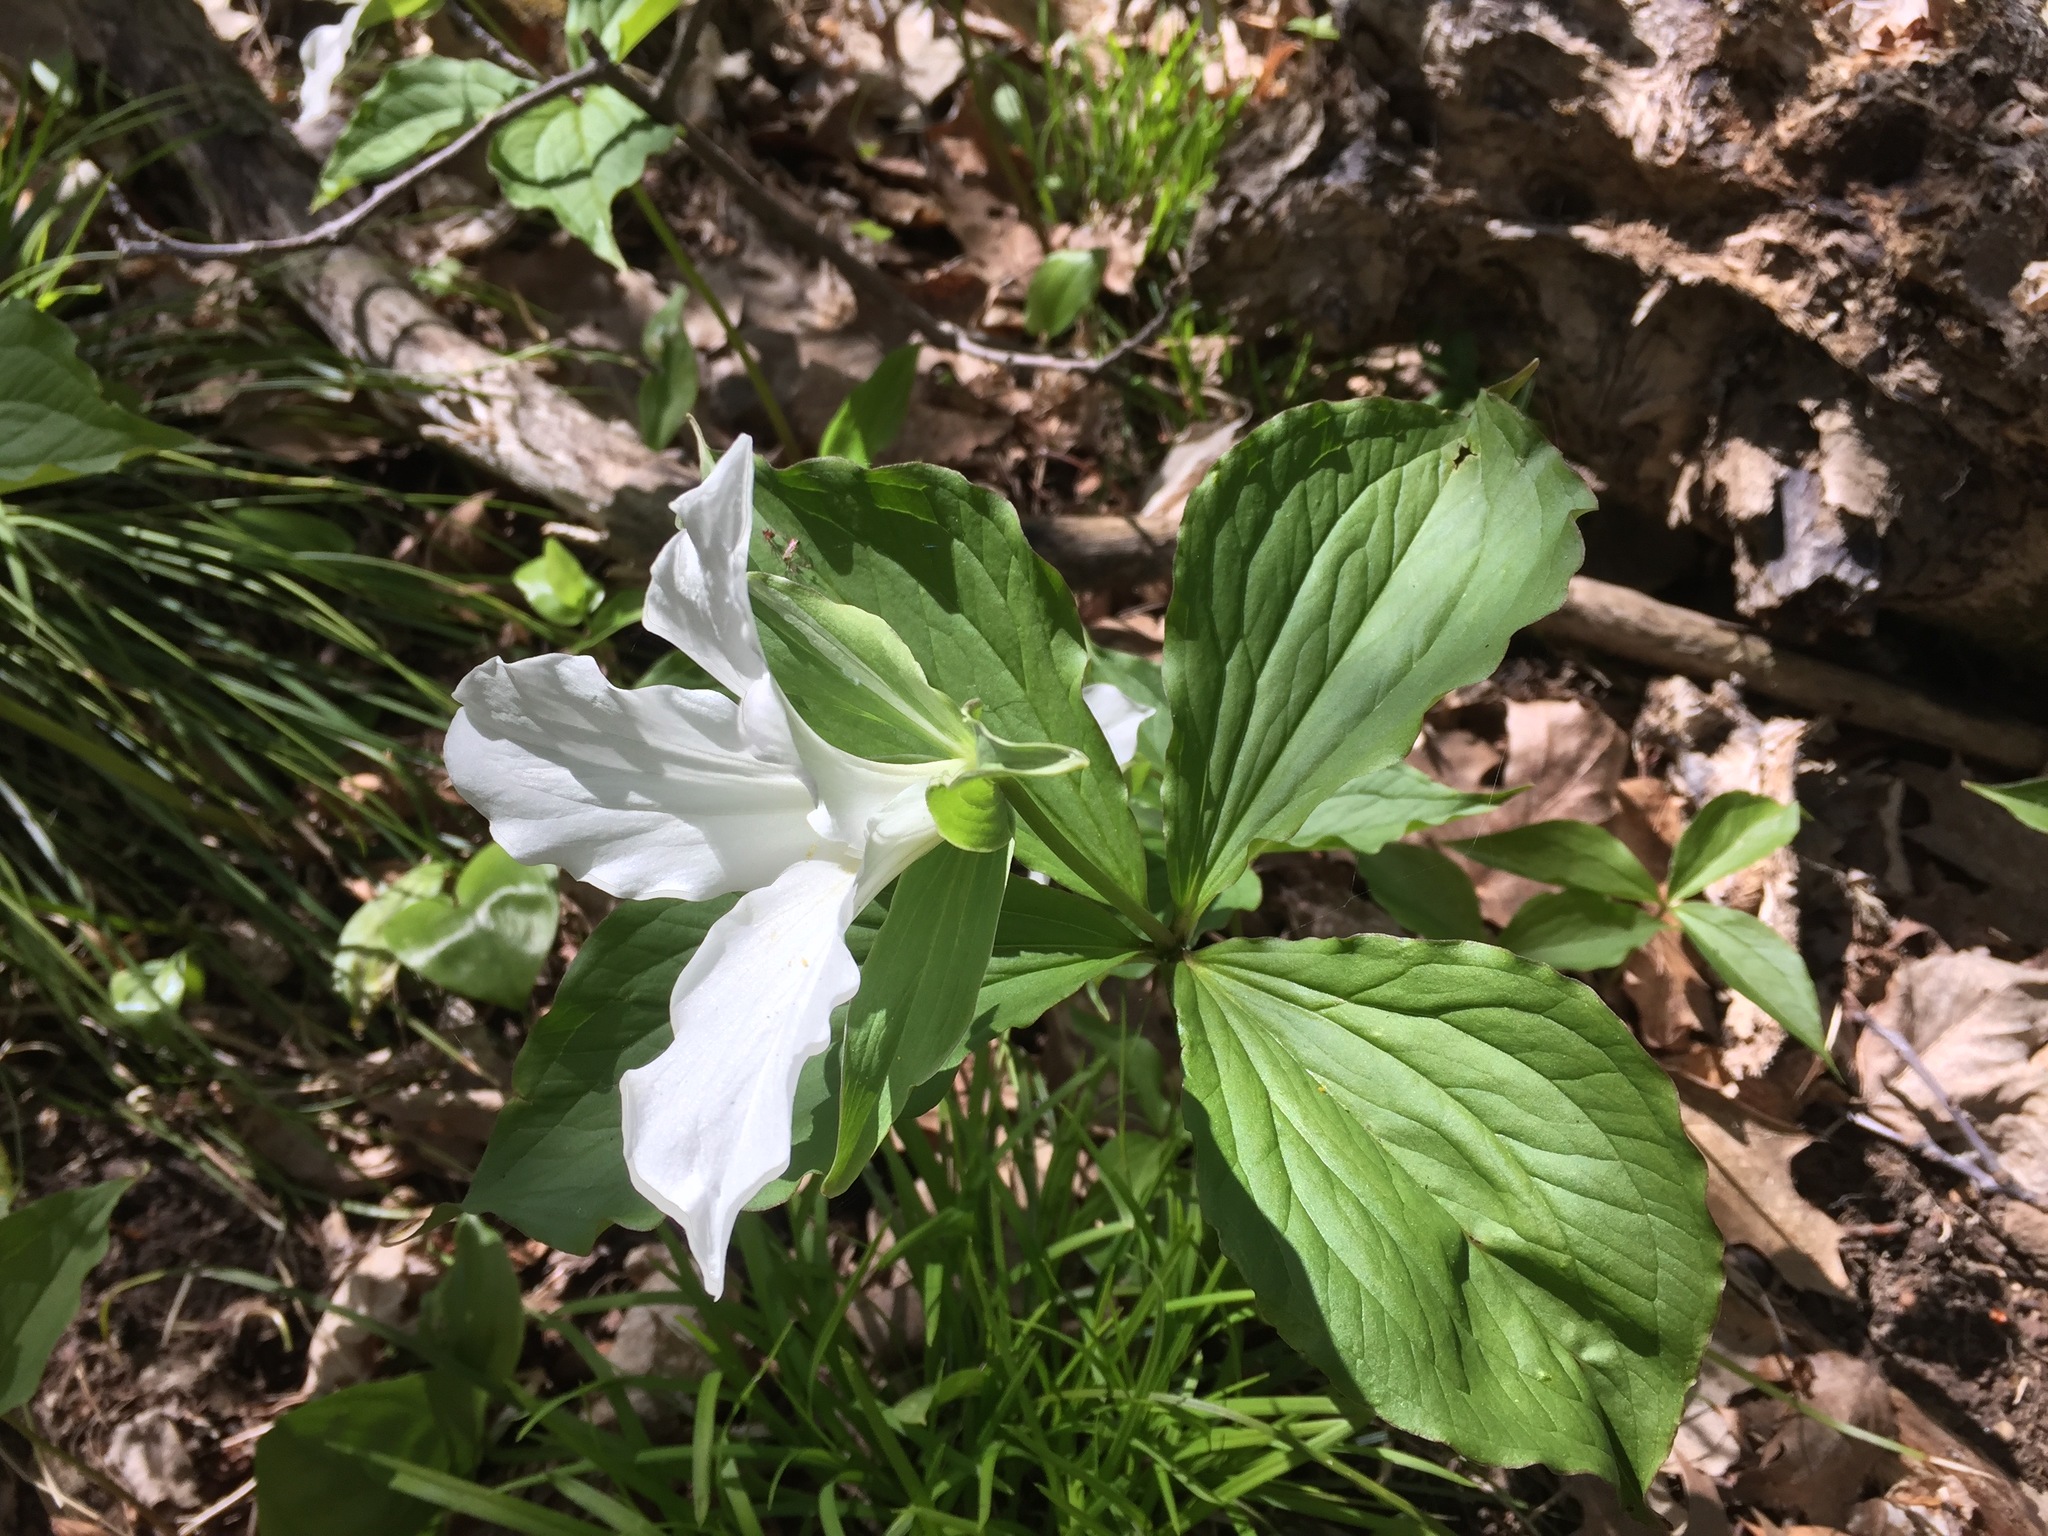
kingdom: Plantae
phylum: Tracheophyta
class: Liliopsida
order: Liliales
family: Melanthiaceae
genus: Trillium
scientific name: Trillium grandiflorum
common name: Great white trillium
